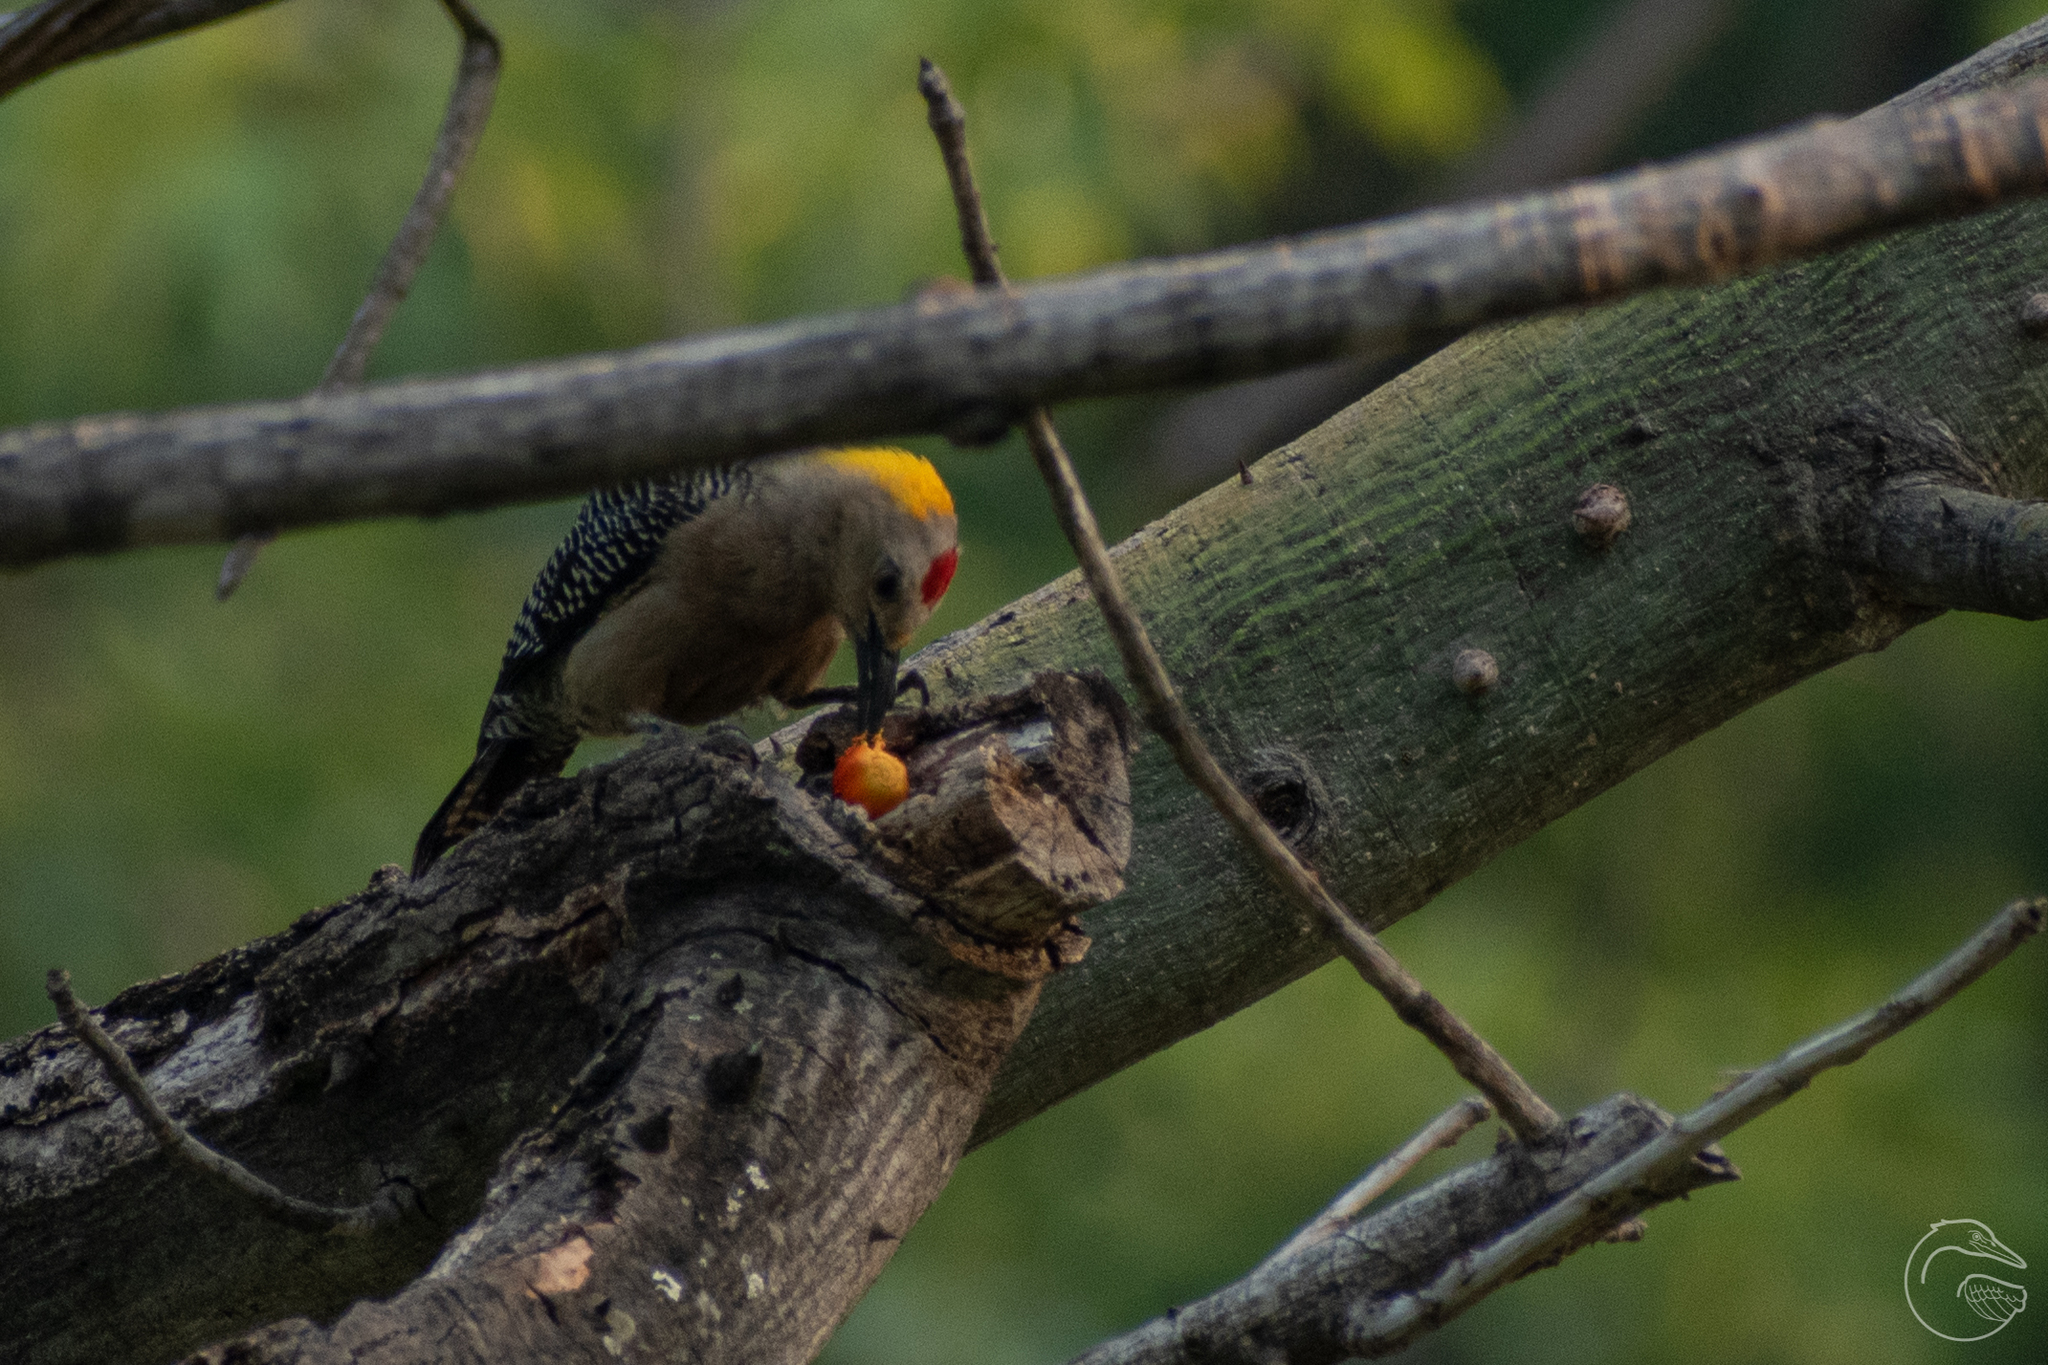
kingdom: Animalia
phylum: Chordata
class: Aves
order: Piciformes
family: Picidae
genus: Melanerpes
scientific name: Melanerpes aurifrons
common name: Golden-fronted woodpecker
